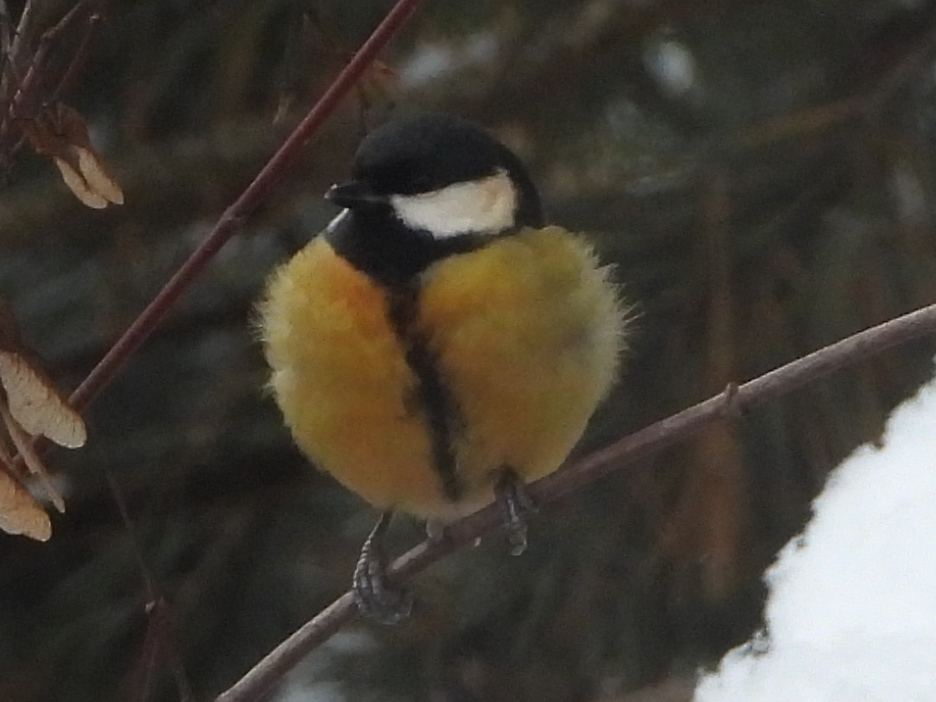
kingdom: Animalia
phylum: Chordata
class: Aves
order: Passeriformes
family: Paridae
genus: Parus
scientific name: Parus major
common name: Great tit
